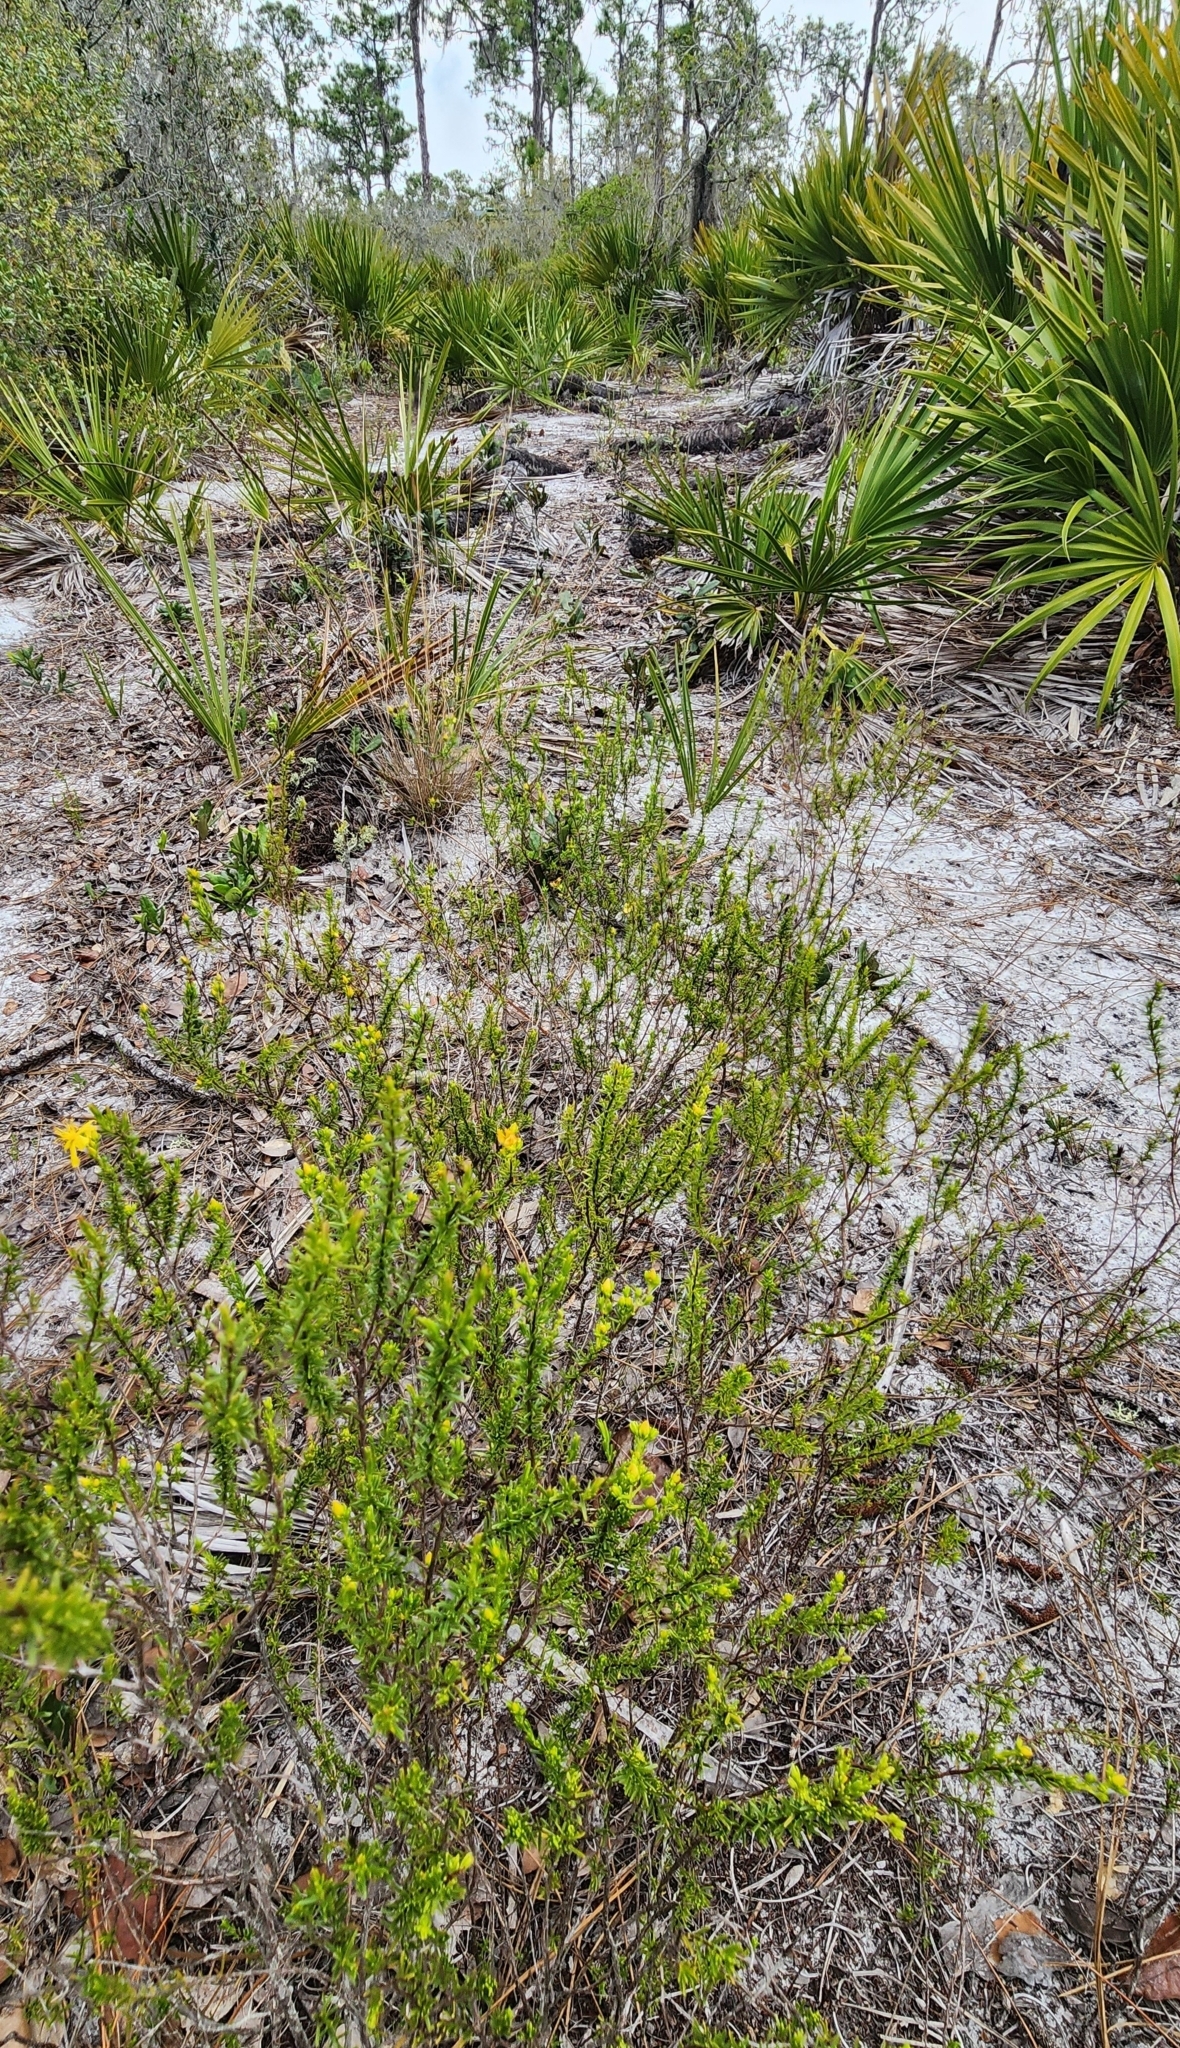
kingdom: Plantae
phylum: Tracheophyta
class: Magnoliopsida
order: Malpighiales
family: Hypericaceae
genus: Hypericum
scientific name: Hypericum tenuifolium
